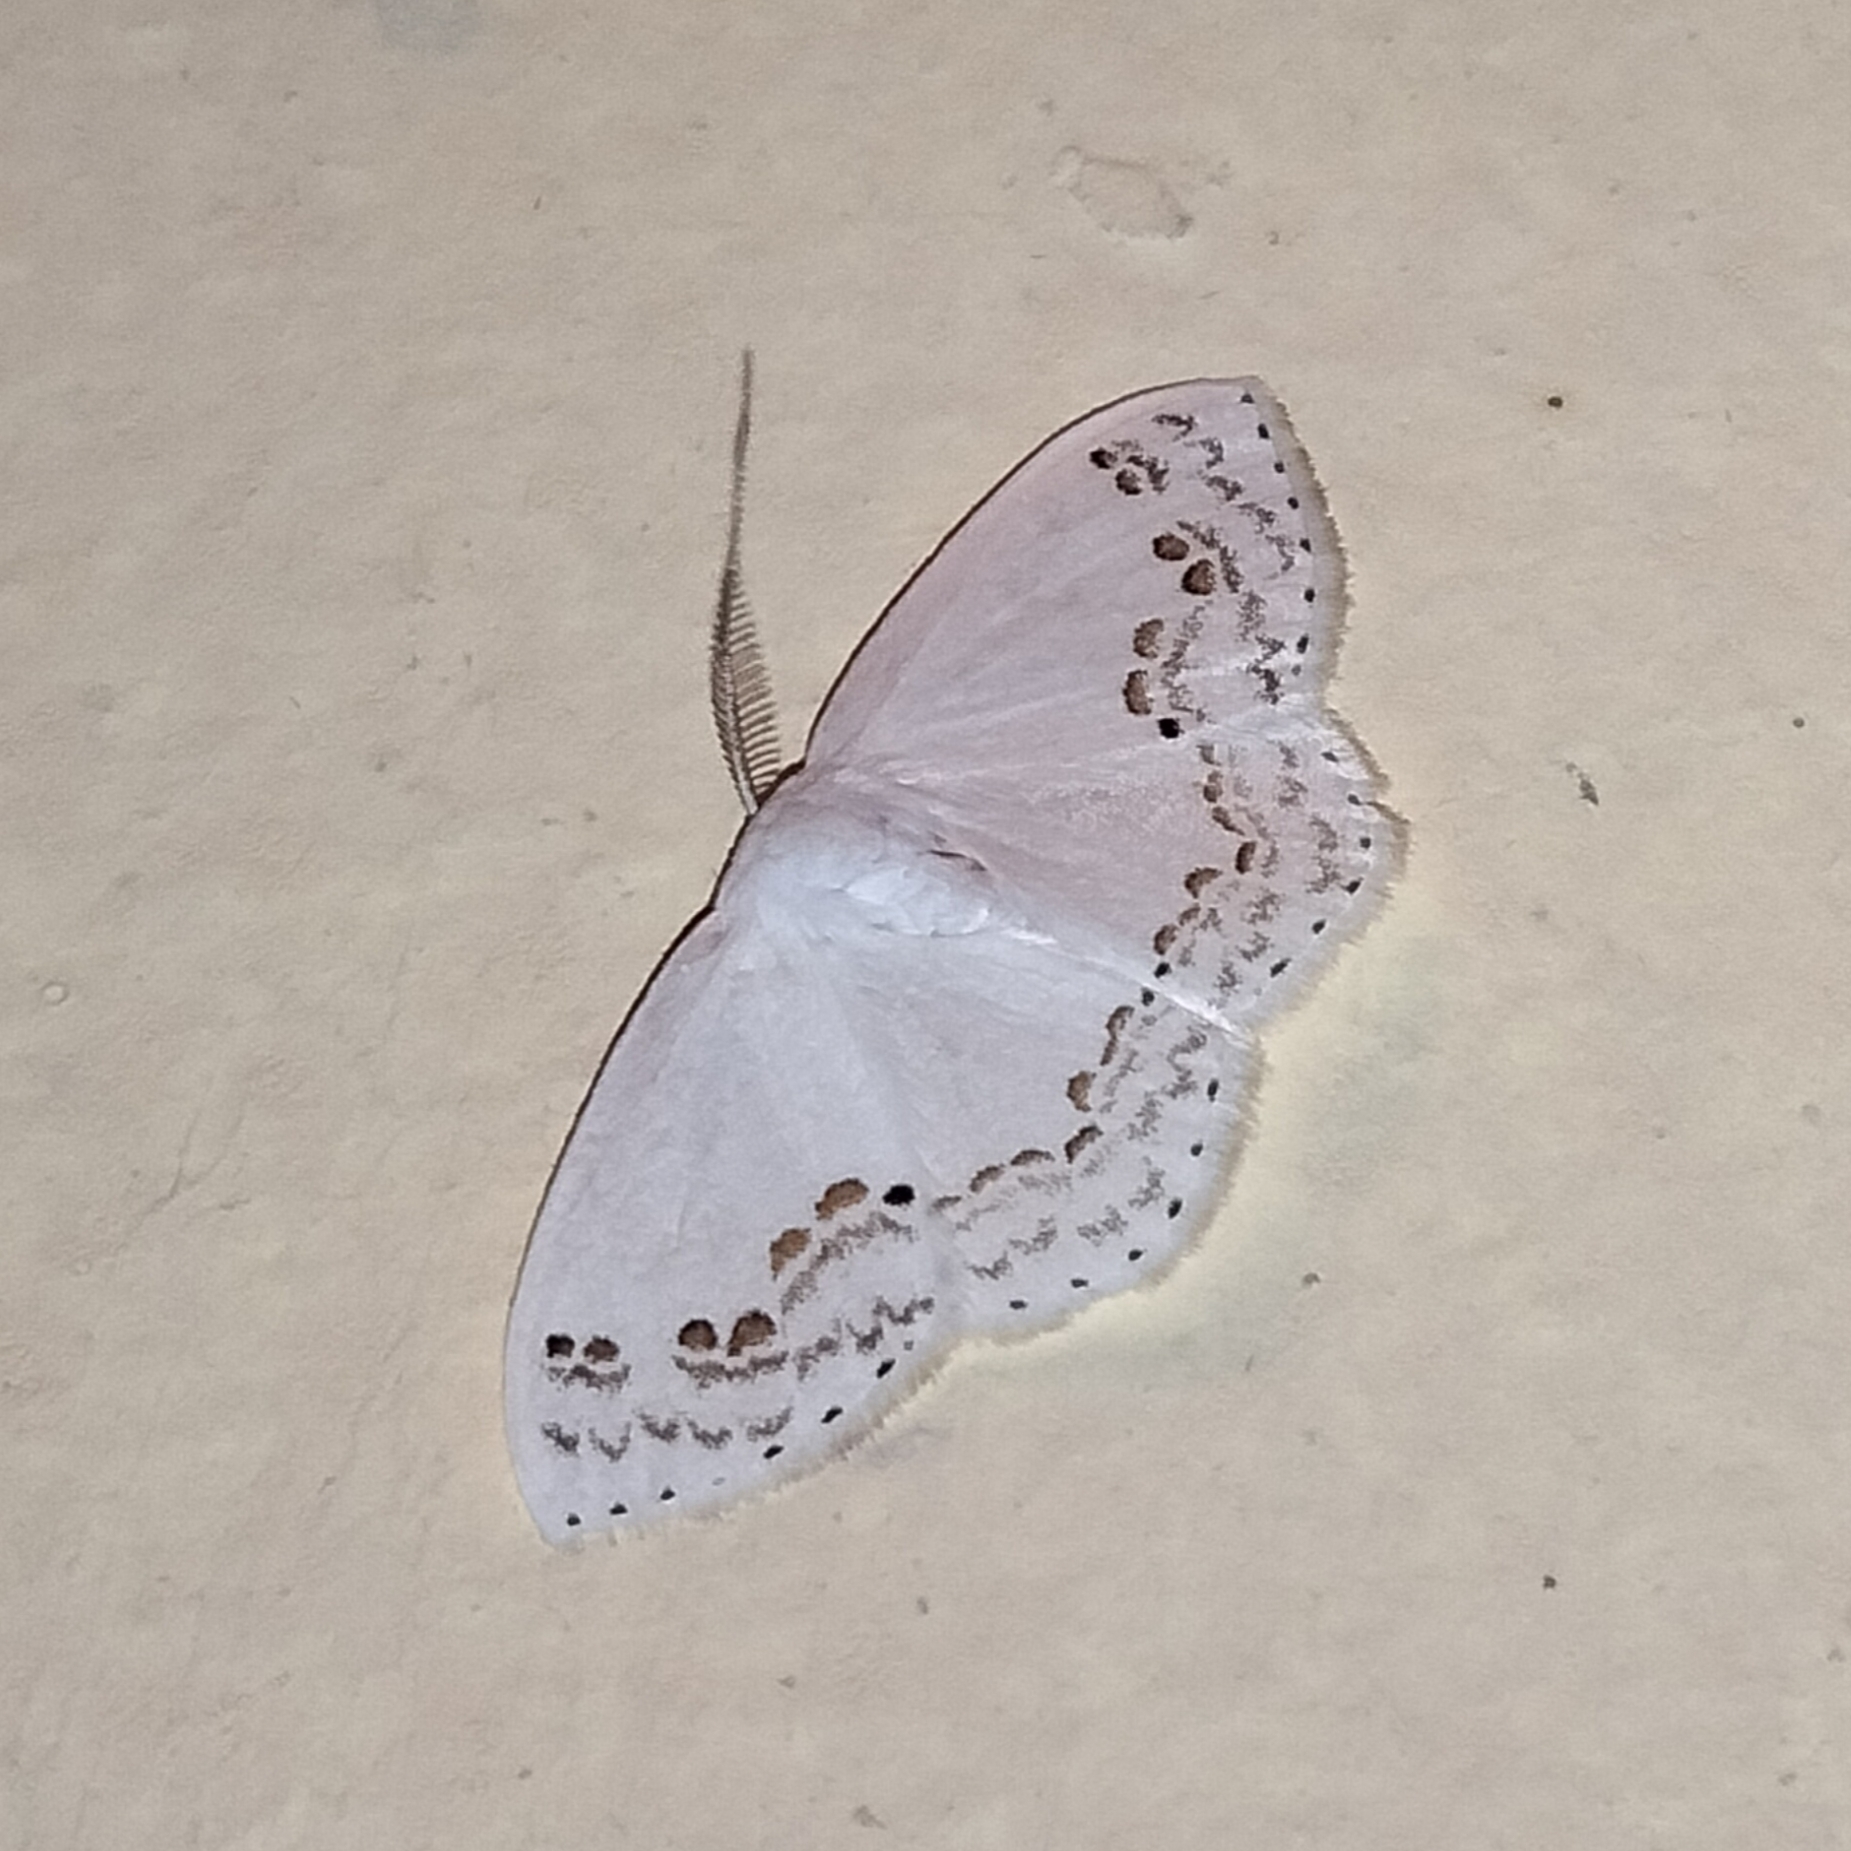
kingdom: Animalia
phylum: Arthropoda
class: Insecta
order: Lepidoptera
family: Drepanidae
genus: Teldenia
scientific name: Teldenia specca
